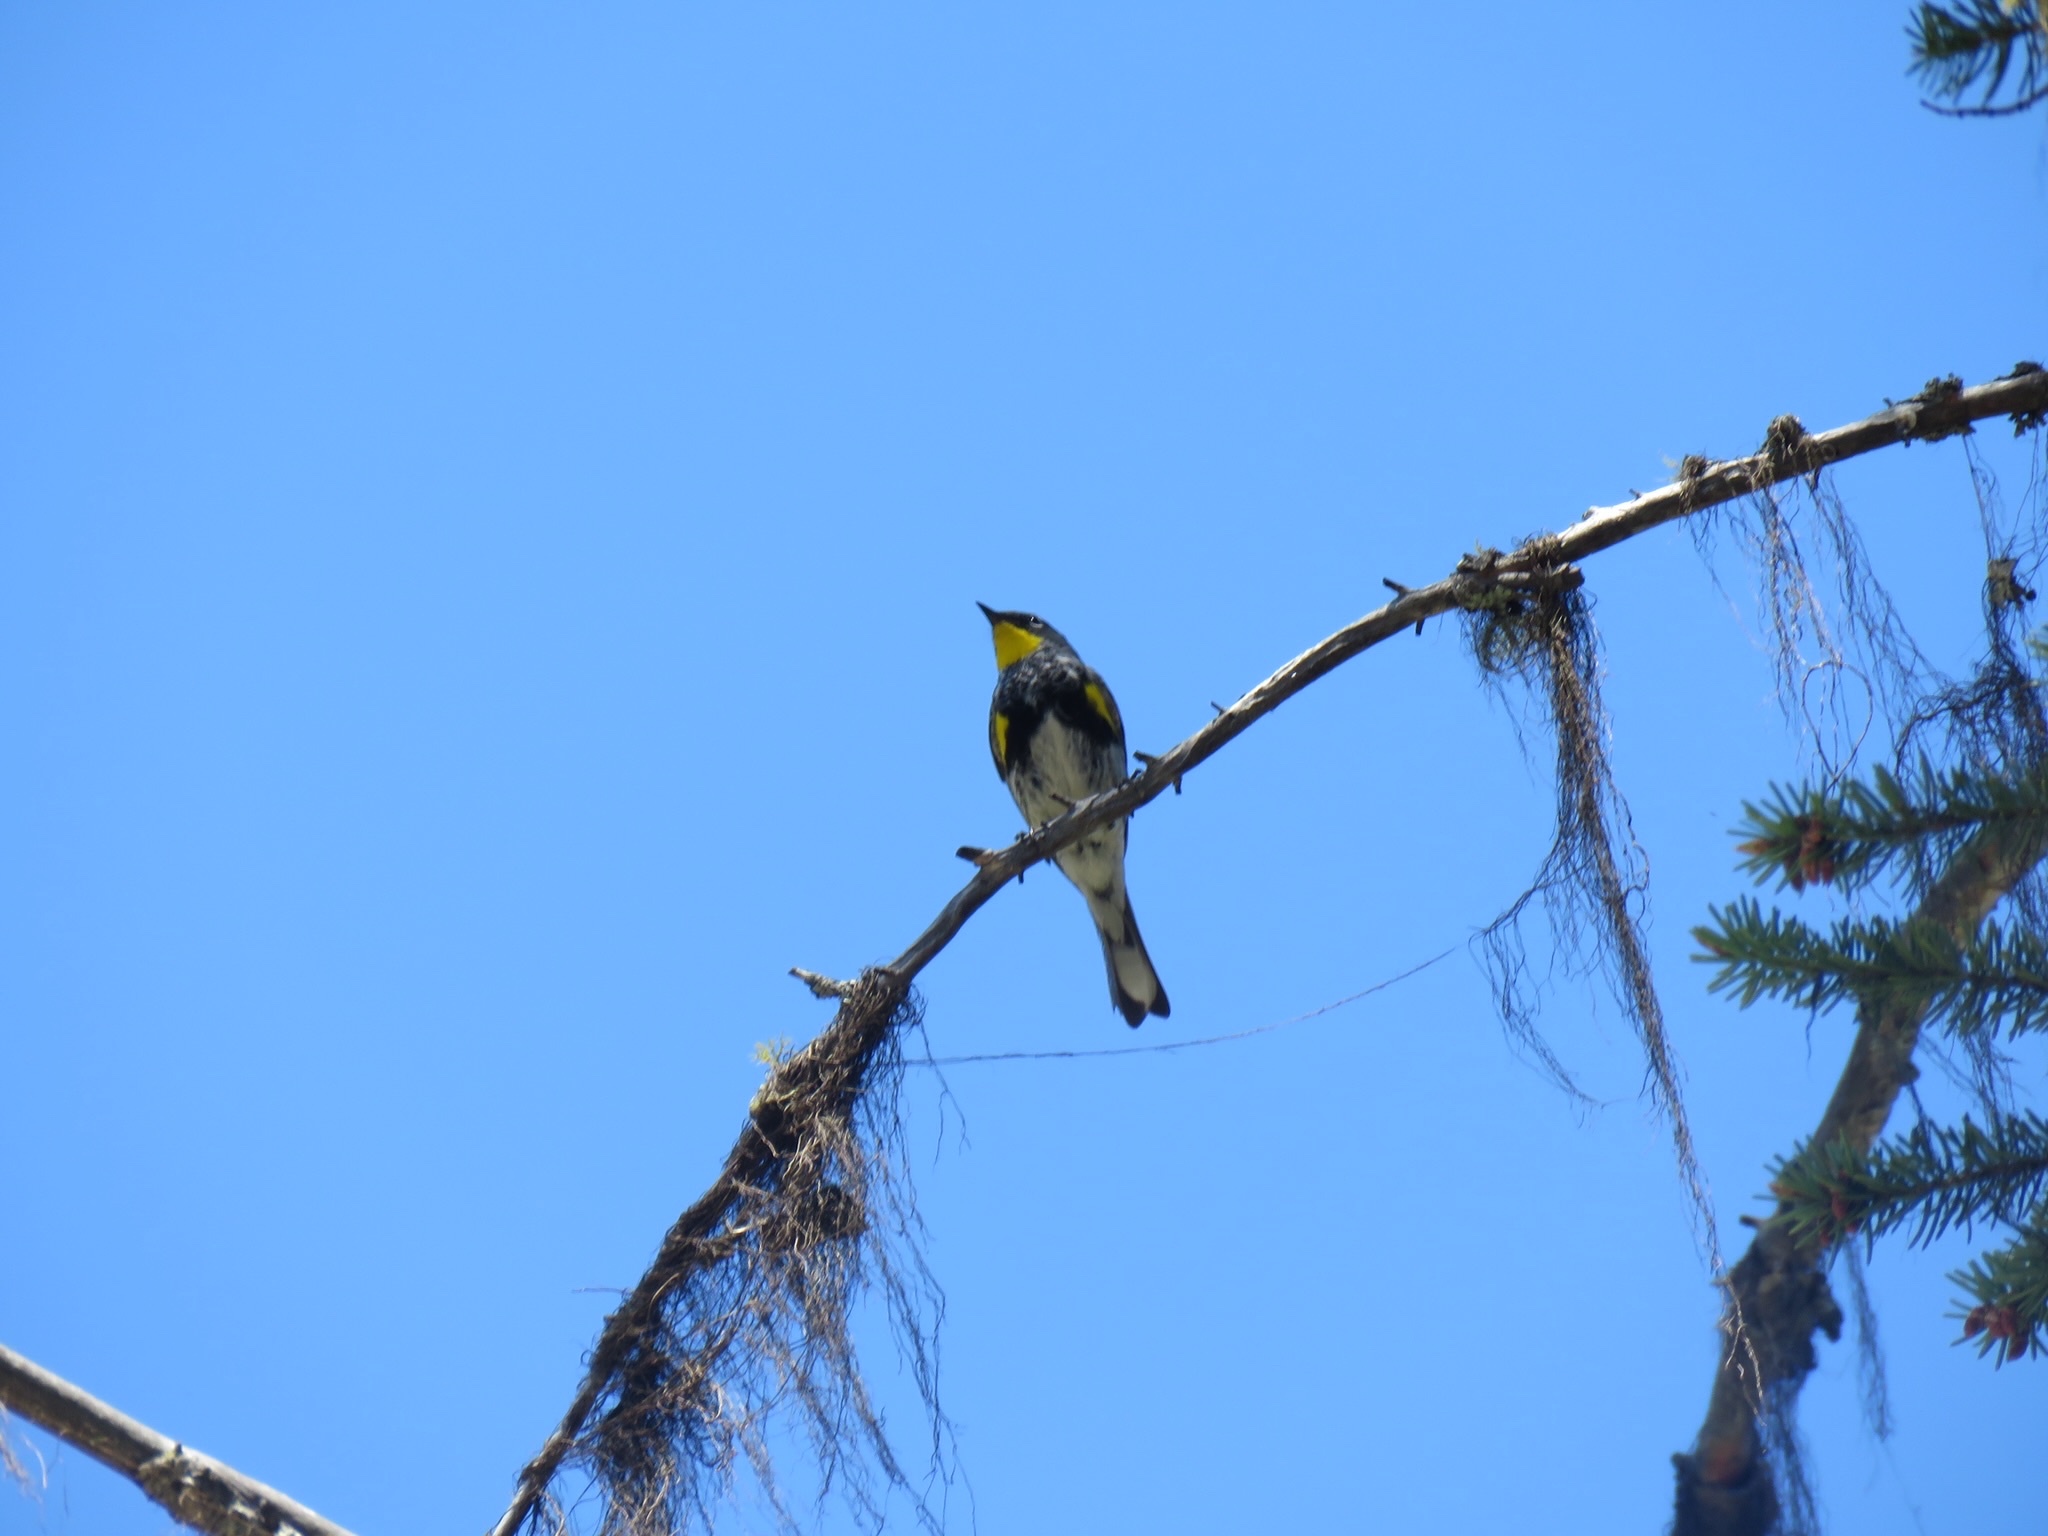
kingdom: Animalia
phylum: Chordata
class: Aves
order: Passeriformes
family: Parulidae
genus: Setophaga
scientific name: Setophaga coronata
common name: Myrtle warbler
